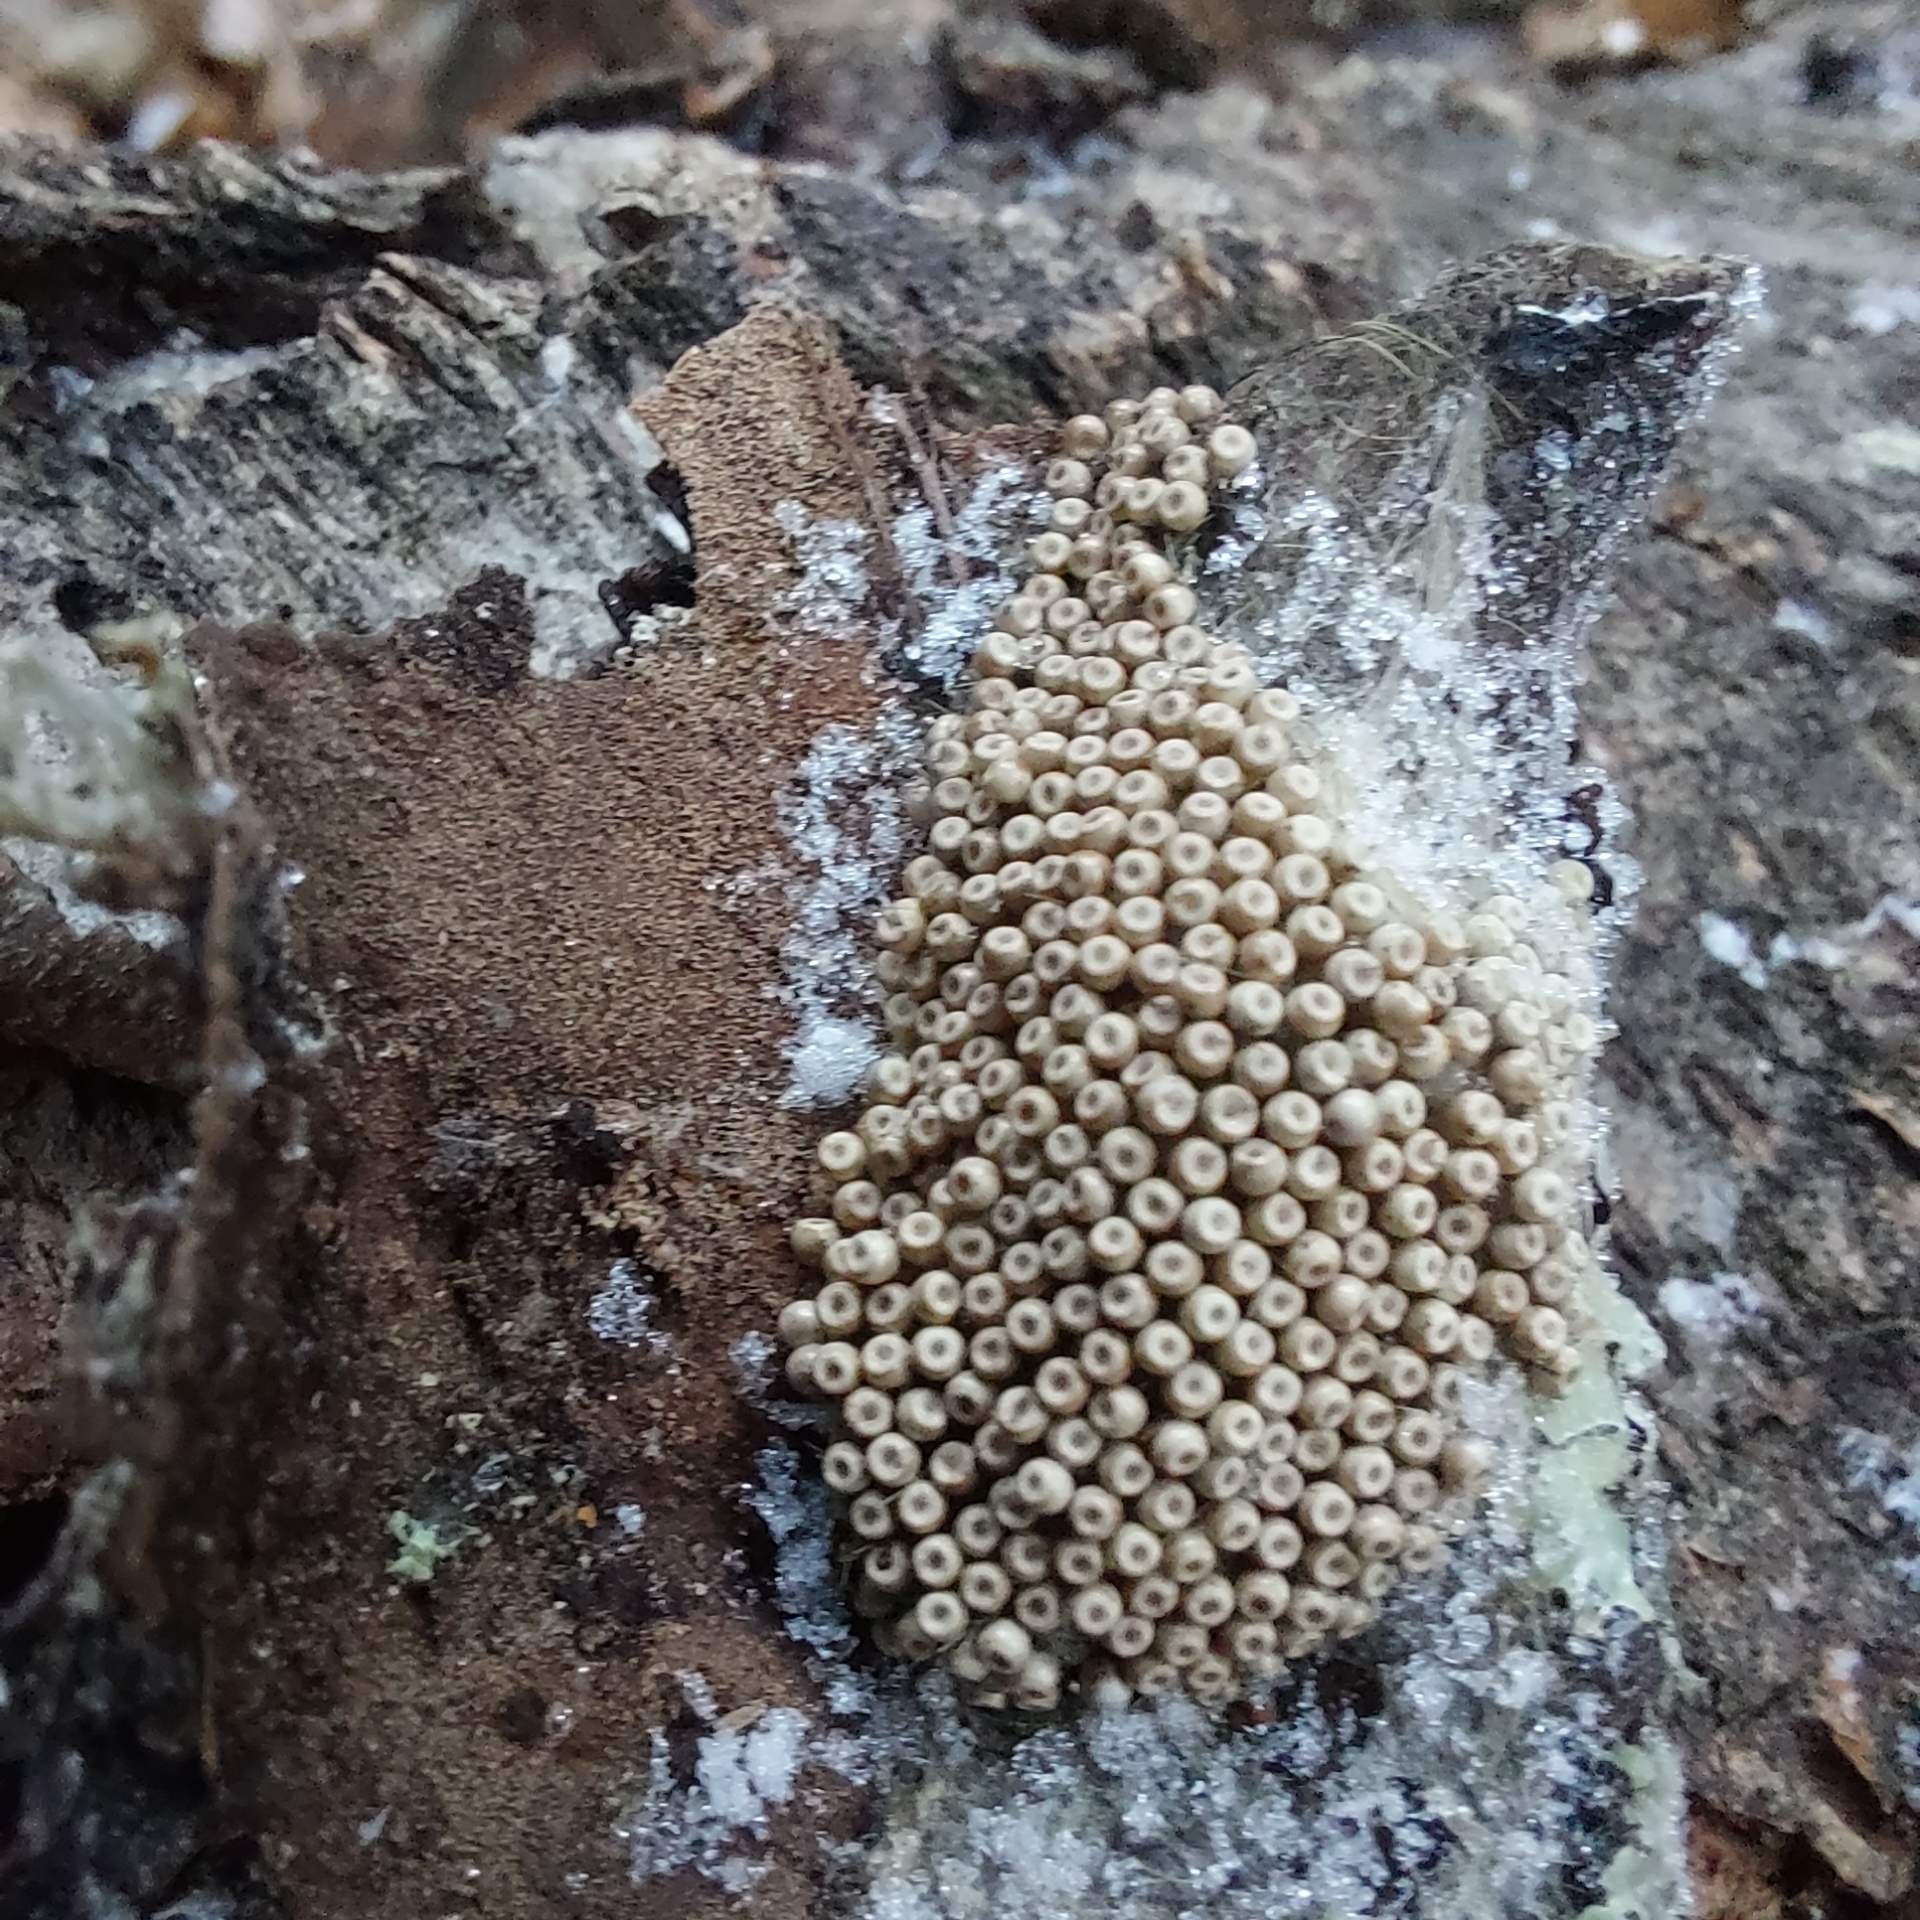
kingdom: Animalia
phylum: Arthropoda
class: Insecta
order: Lepidoptera
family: Erebidae
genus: Orgyia
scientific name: Orgyia antiqua
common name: Vapourer
